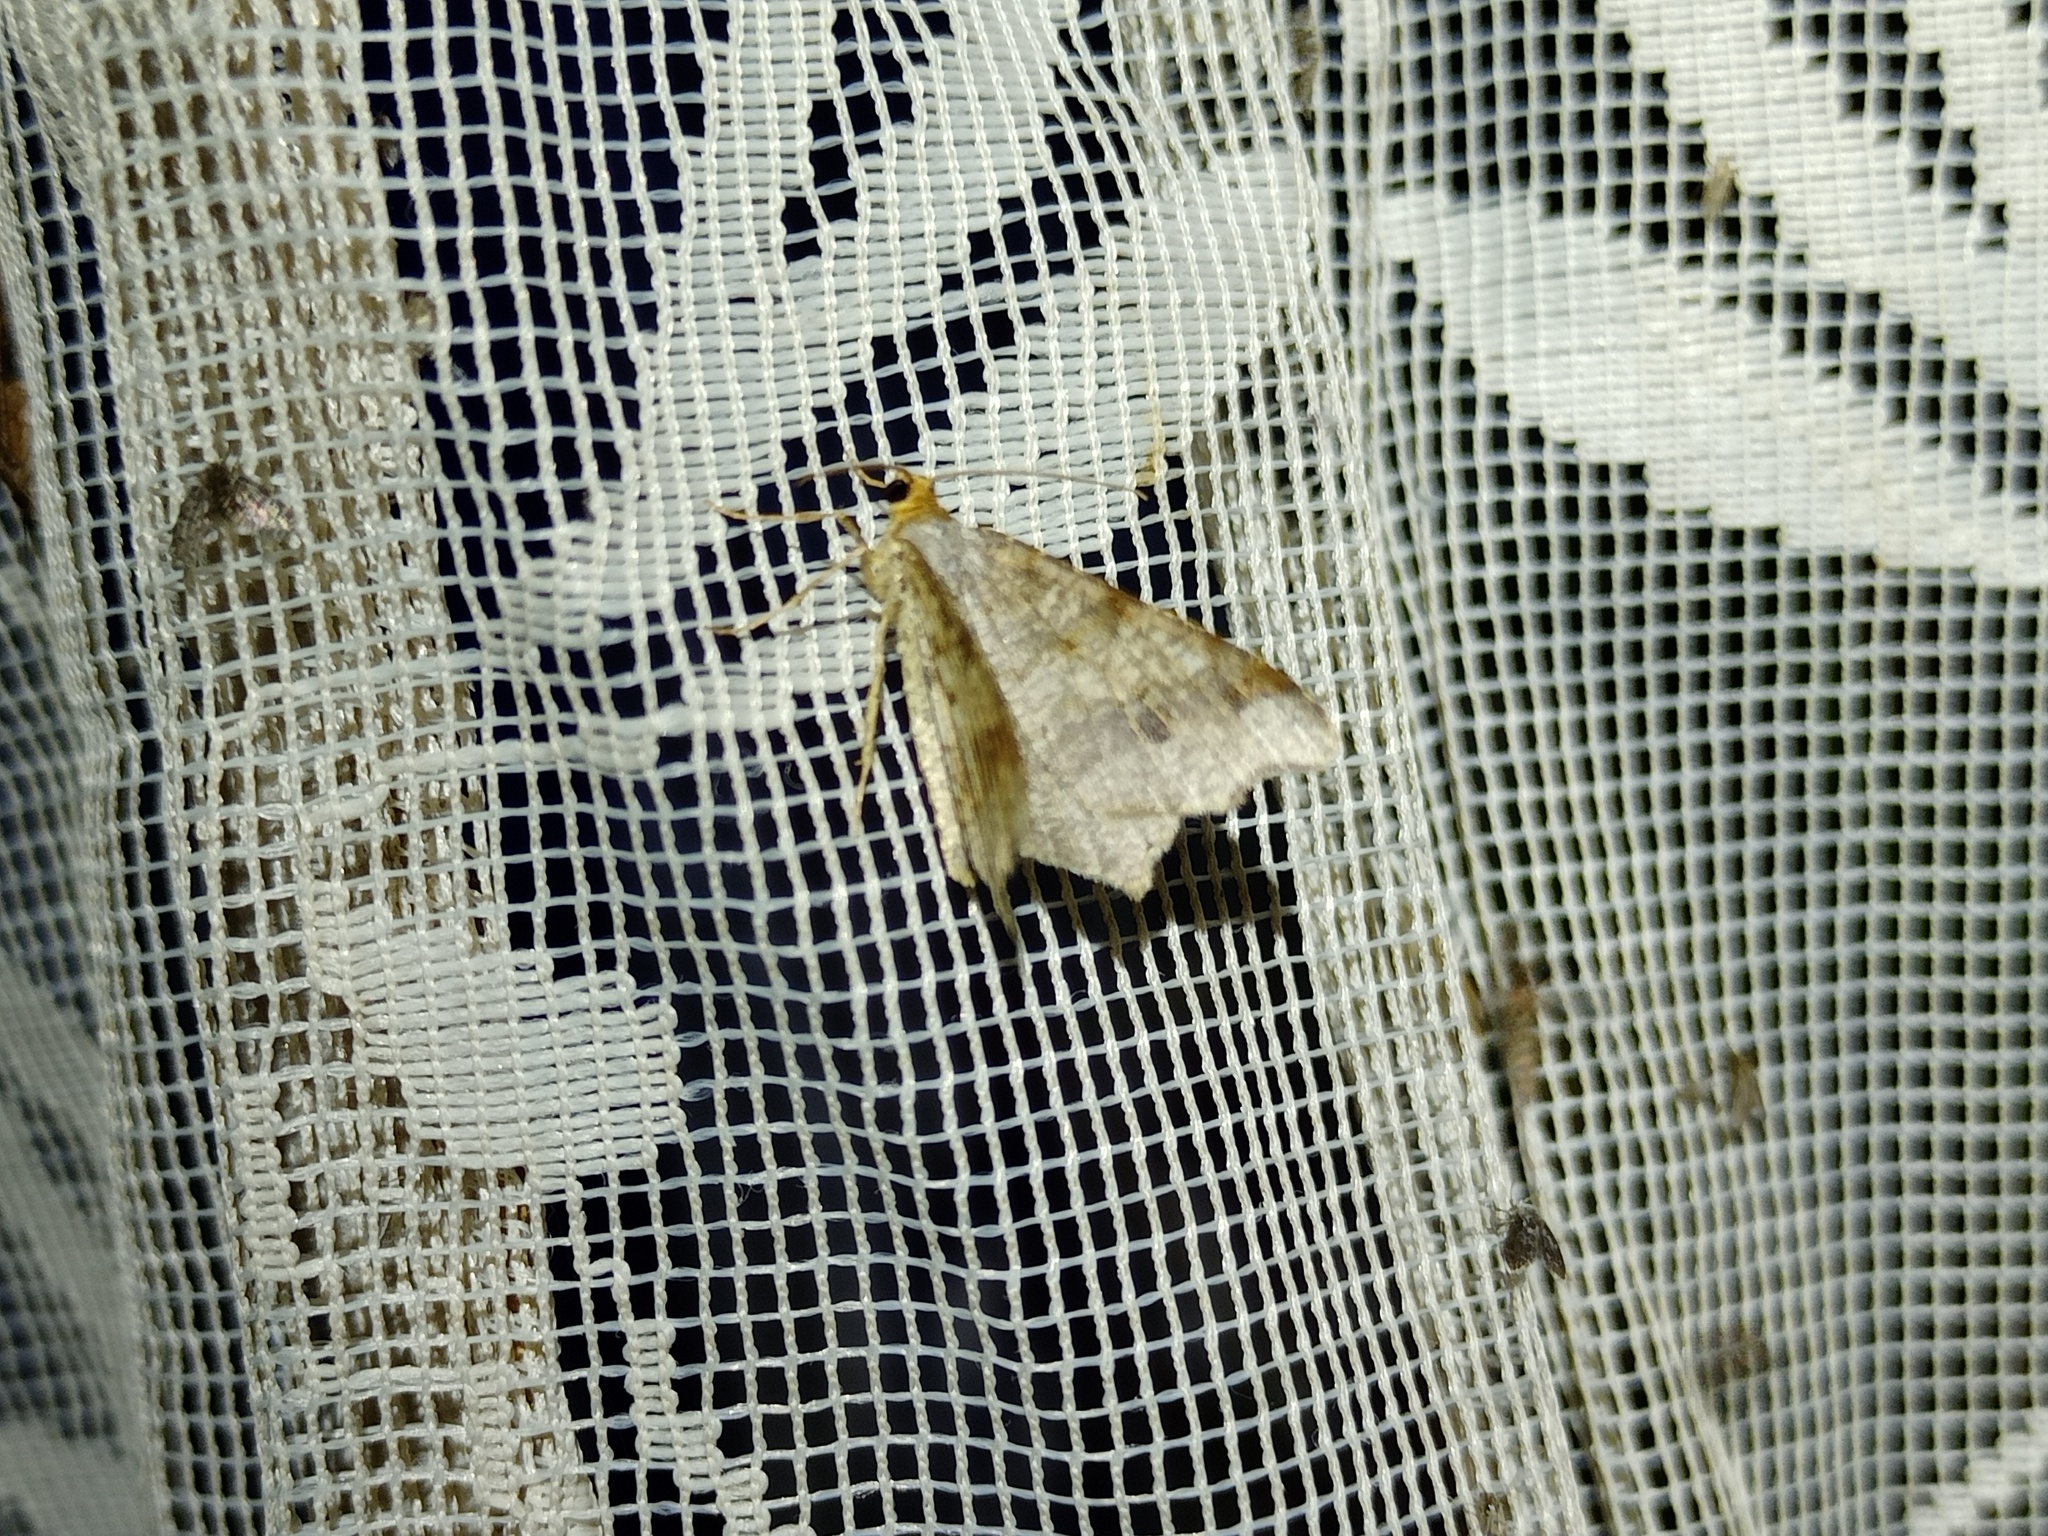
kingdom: Animalia
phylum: Arthropoda
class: Insecta
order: Lepidoptera
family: Geometridae
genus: Macaria
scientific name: Macaria alternata
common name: Sharp-angled peacock
